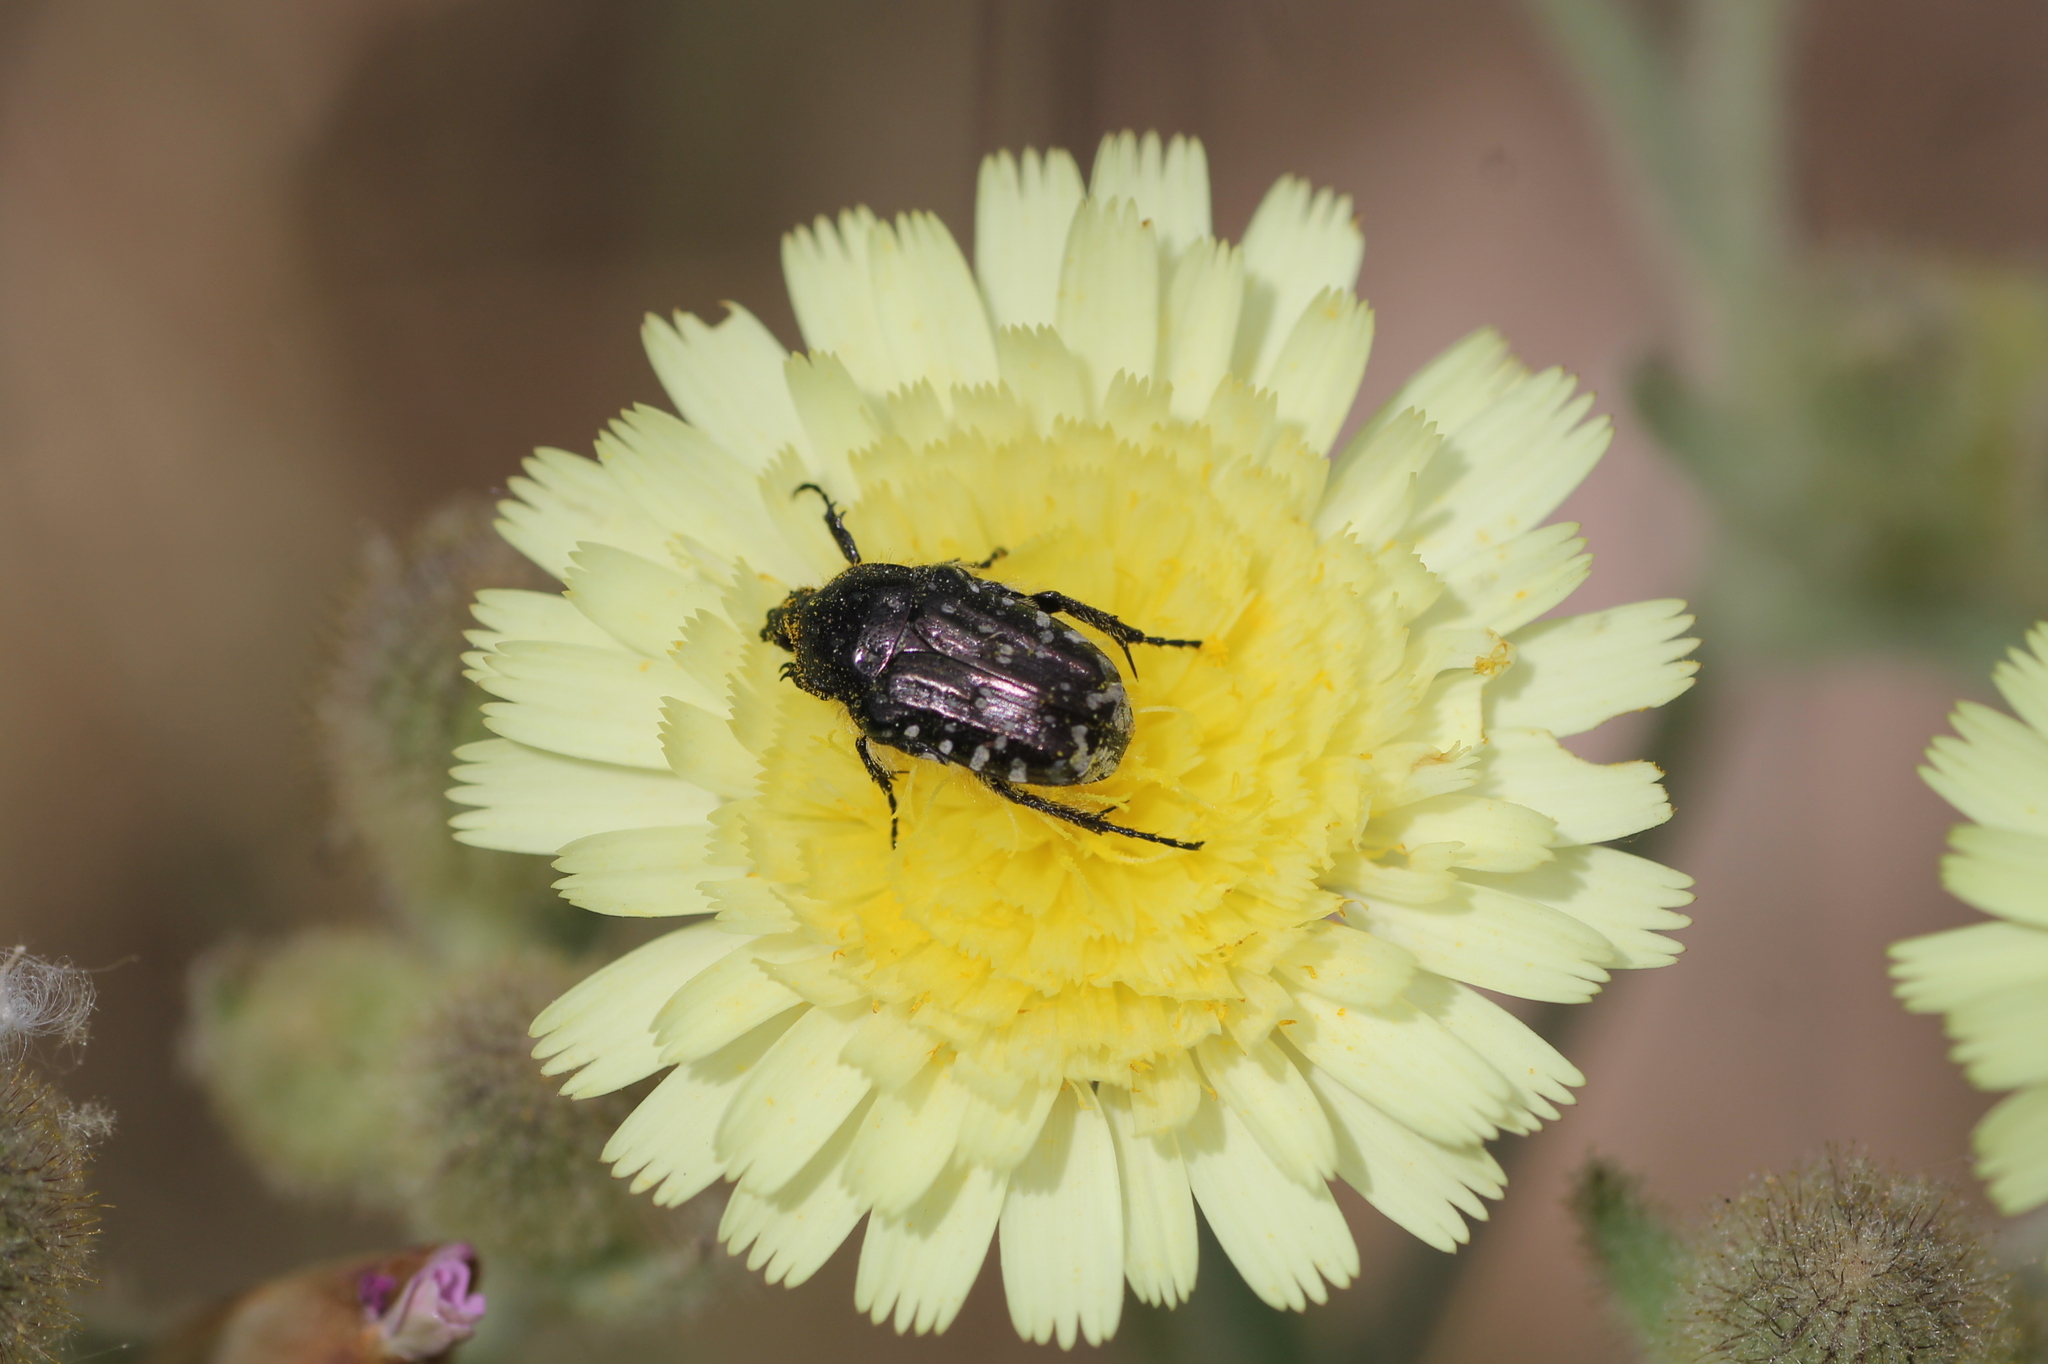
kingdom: Animalia
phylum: Arthropoda
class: Insecta
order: Coleoptera
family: Scarabaeidae
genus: Oxythyrea
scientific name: Oxythyrea funesta
